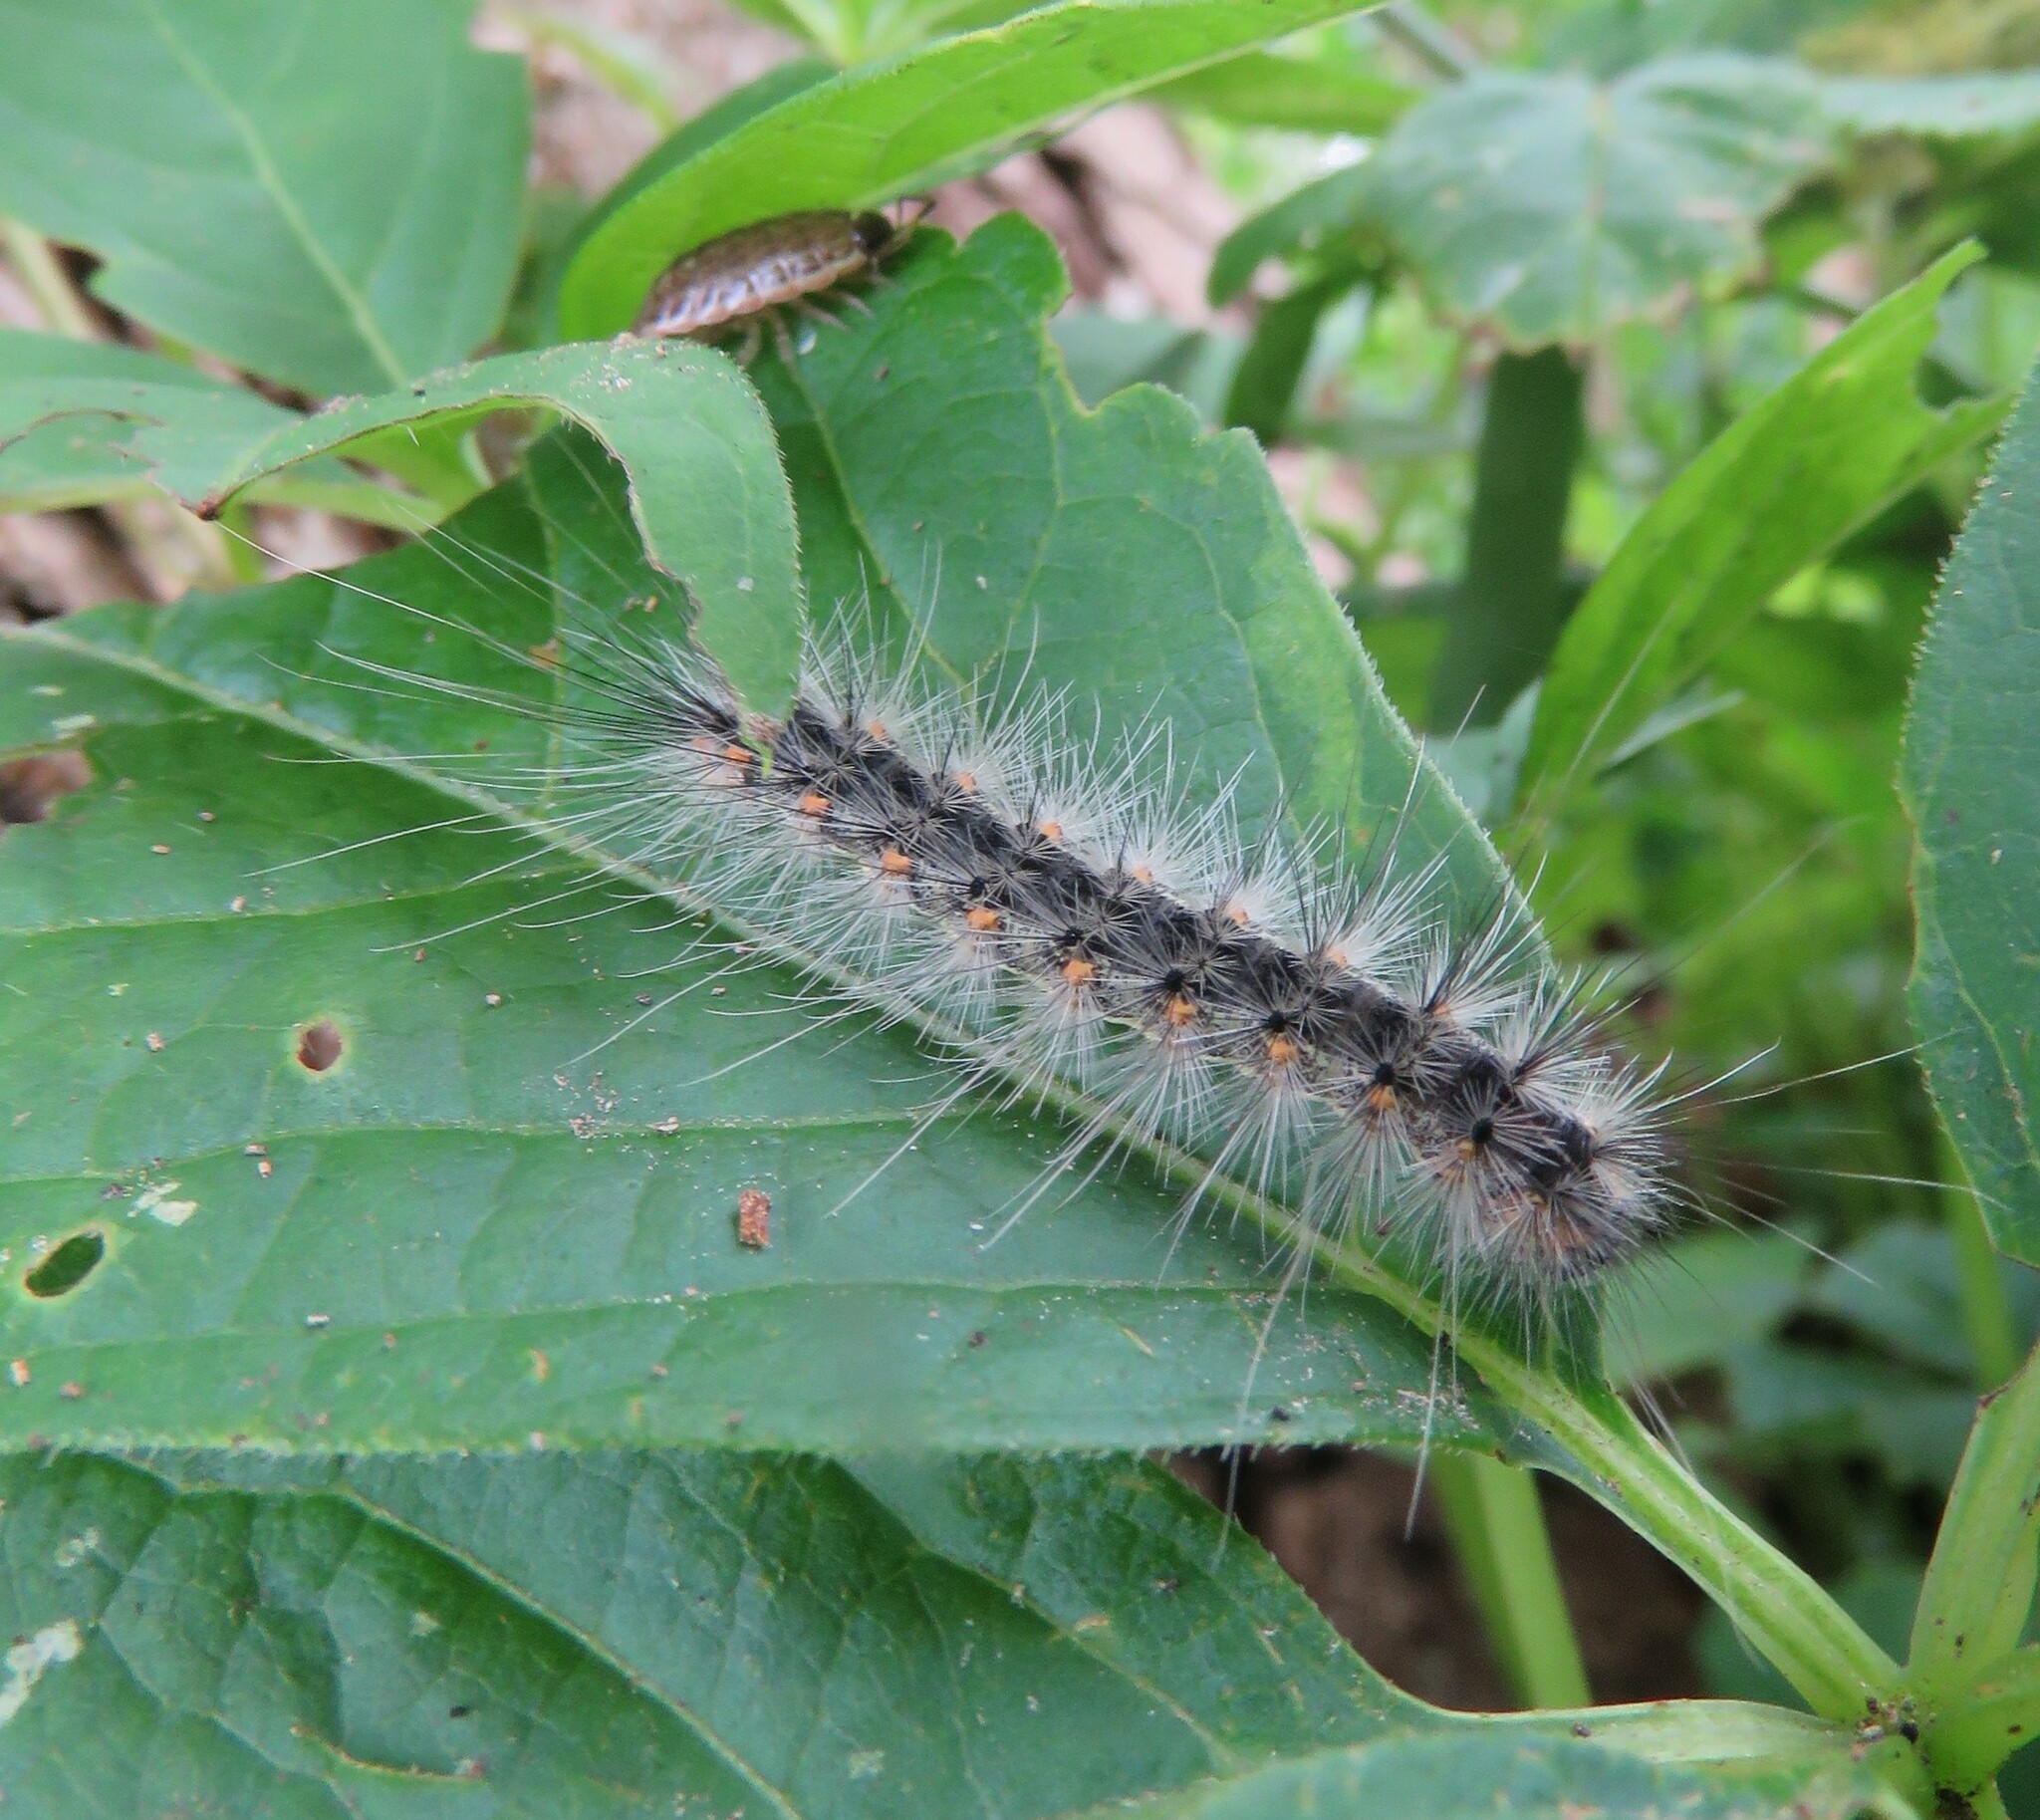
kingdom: Animalia
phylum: Arthropoda
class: Insecta
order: Lepidoptera
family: Erebidae
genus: Hyphantria
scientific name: Hyphantria cunea
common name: American white moth
